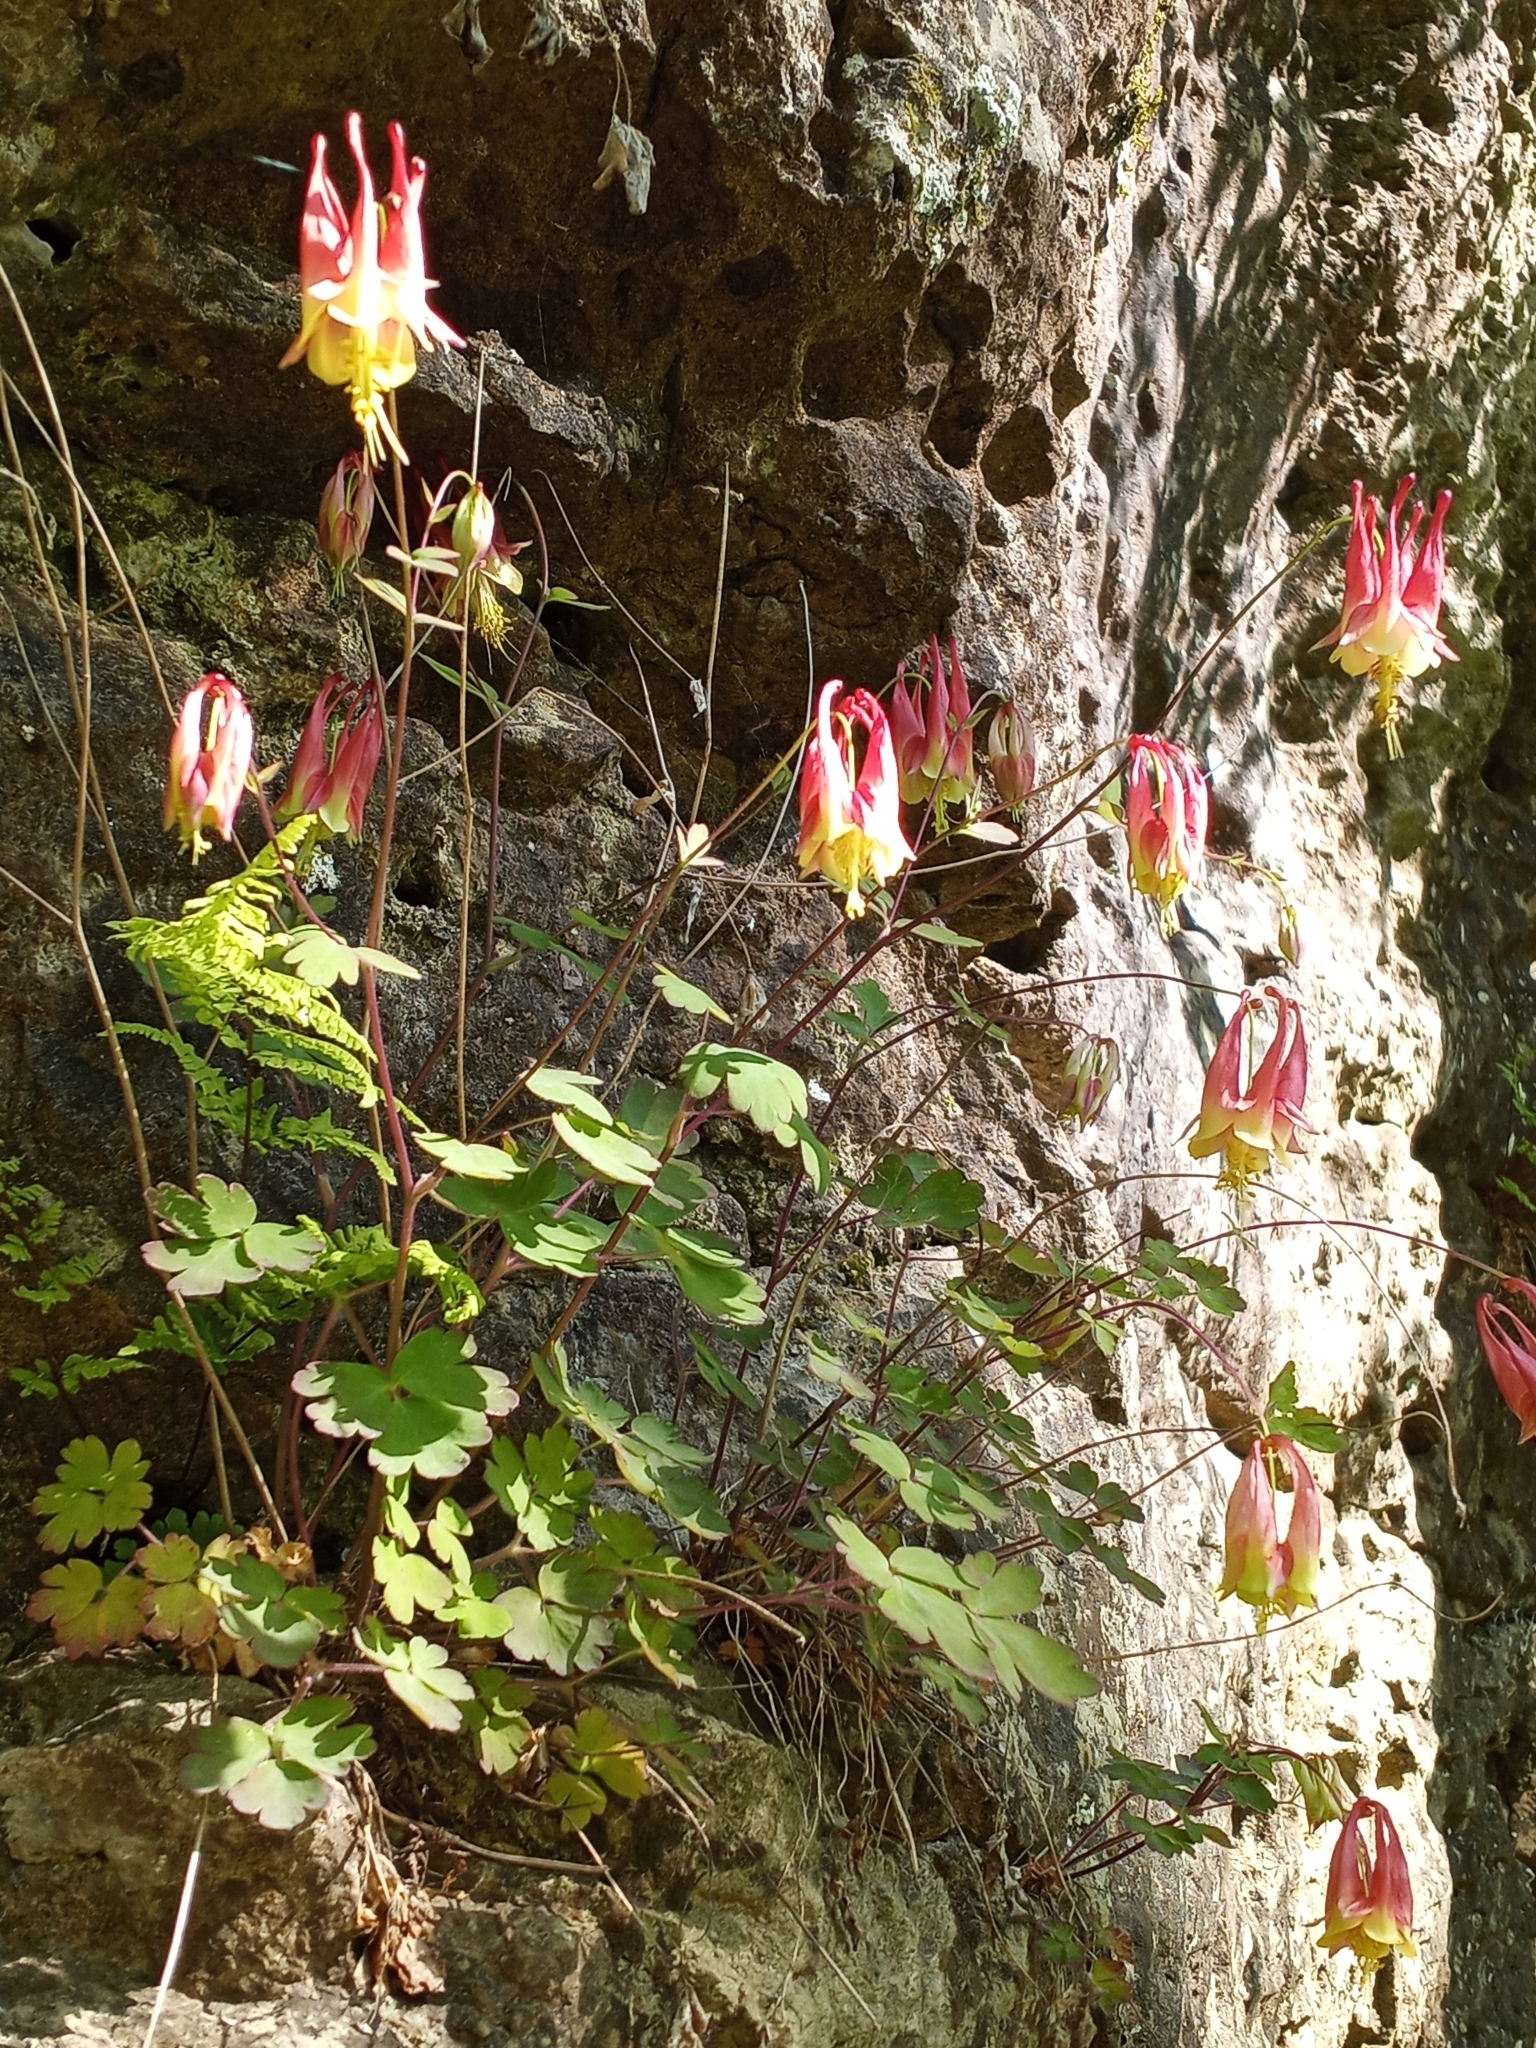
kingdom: Plantae
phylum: Tracheophyta
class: Magnoliopsida
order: Ranunculales
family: Ranunculaceae
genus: Aquilegia
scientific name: Aquilegia canadensis
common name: American columbine
